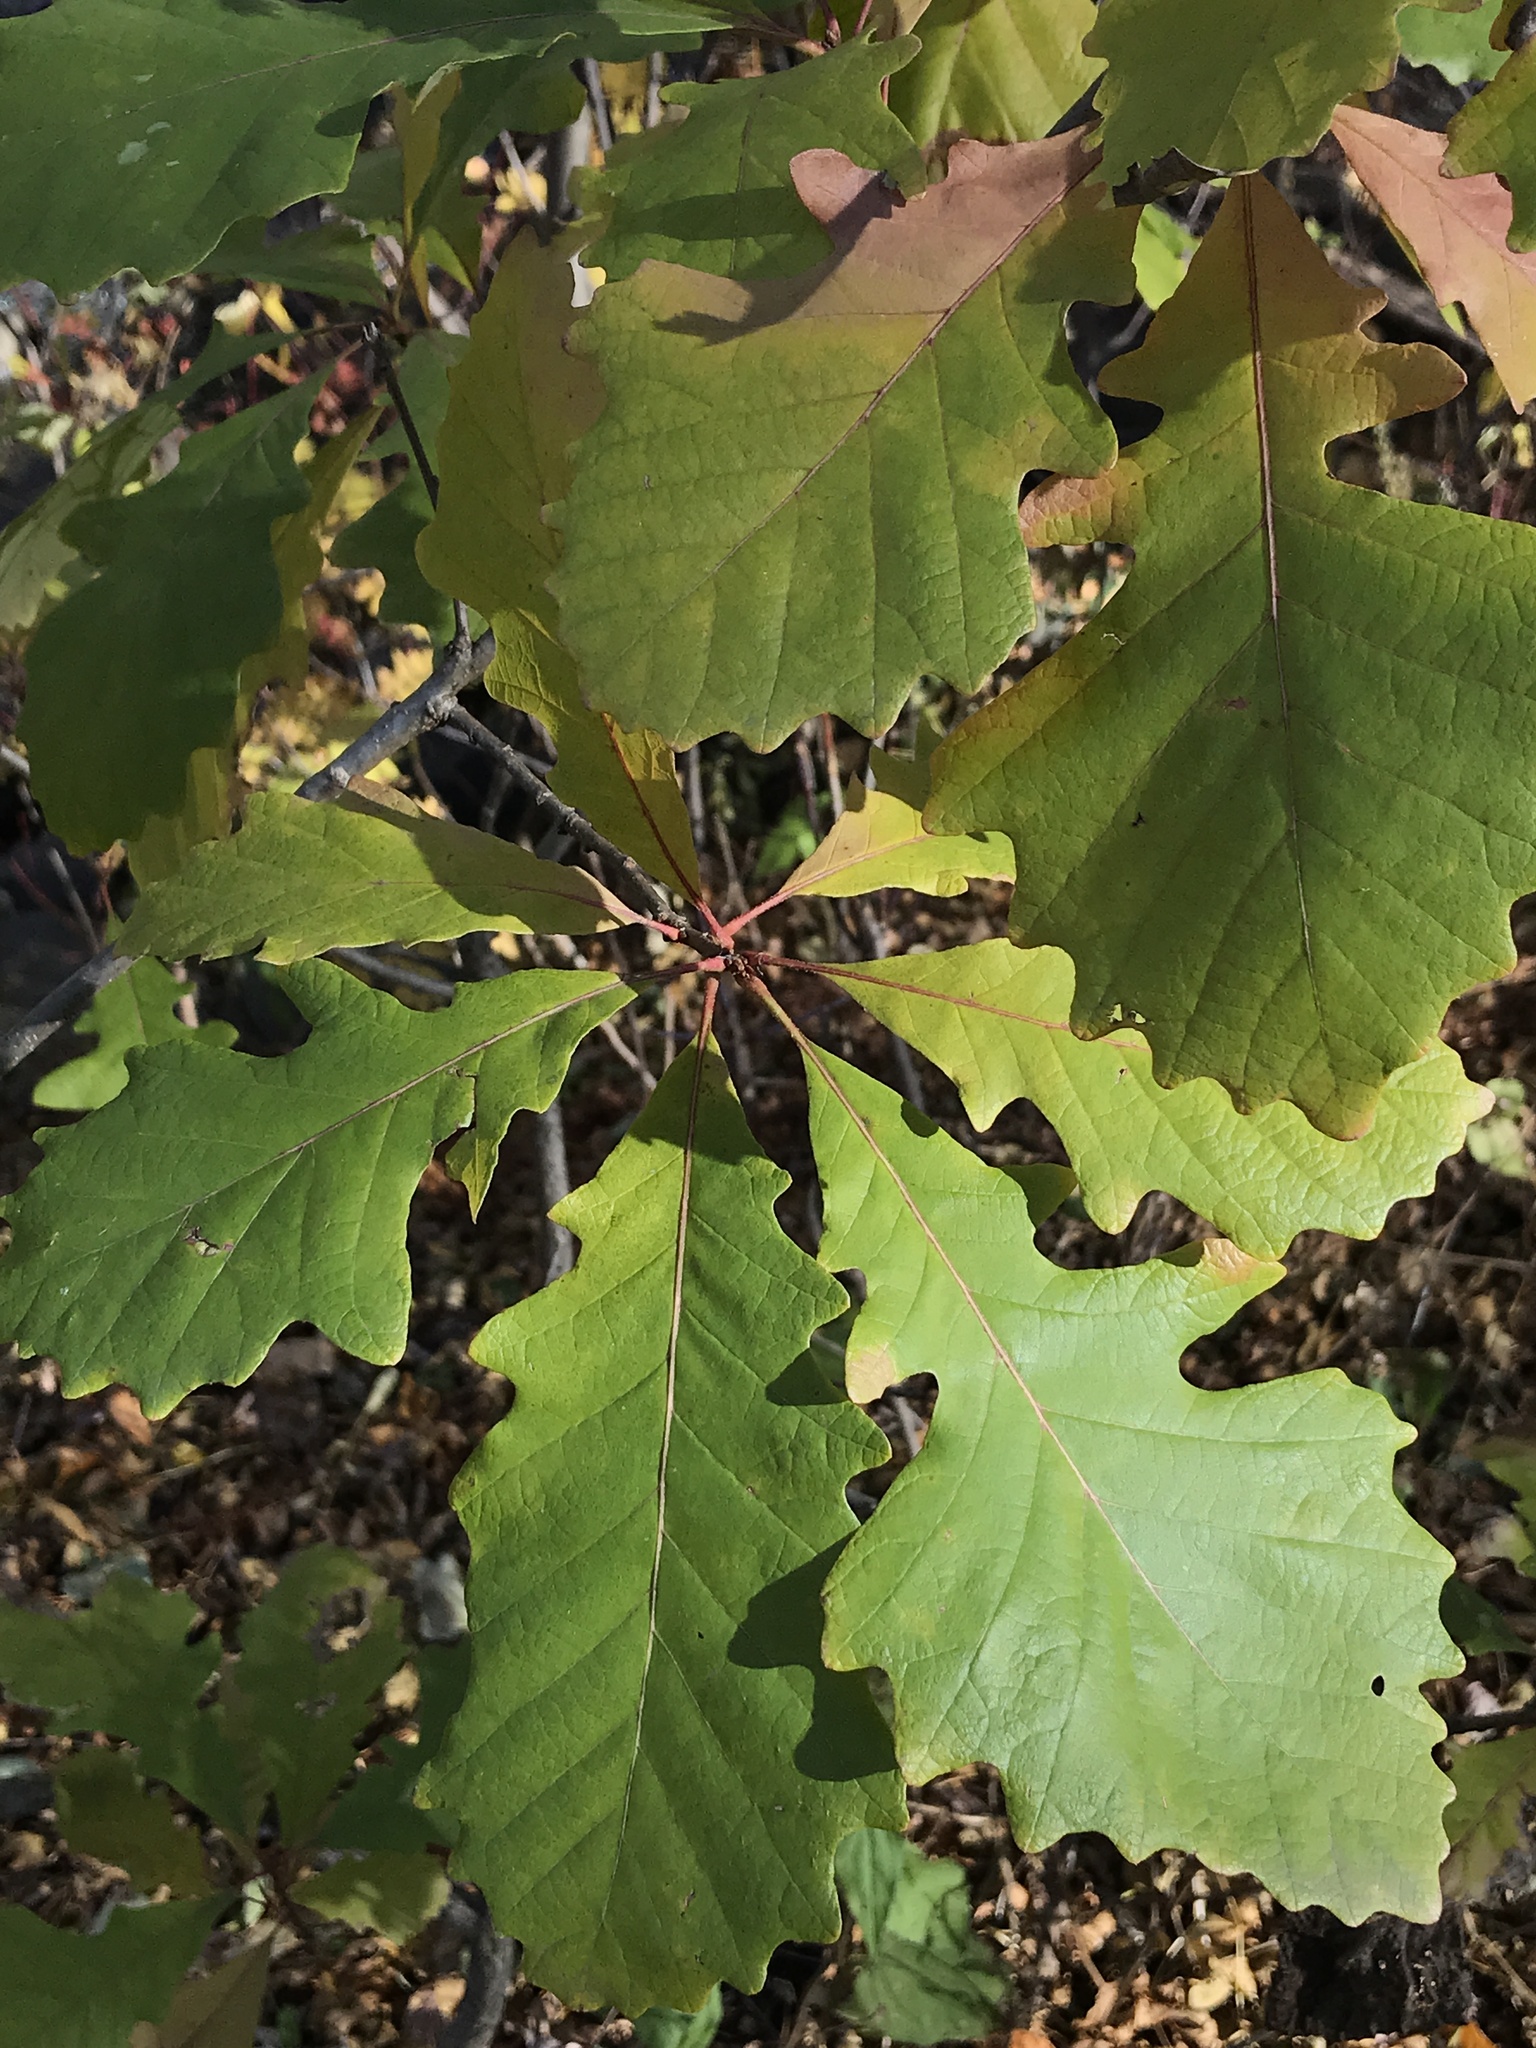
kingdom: Plantae
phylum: Tracheophyta
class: Magnoliopsida
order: Fagales
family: Fagaceae
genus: Quercus
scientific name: Quercus macrocarpa
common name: Bur oak
